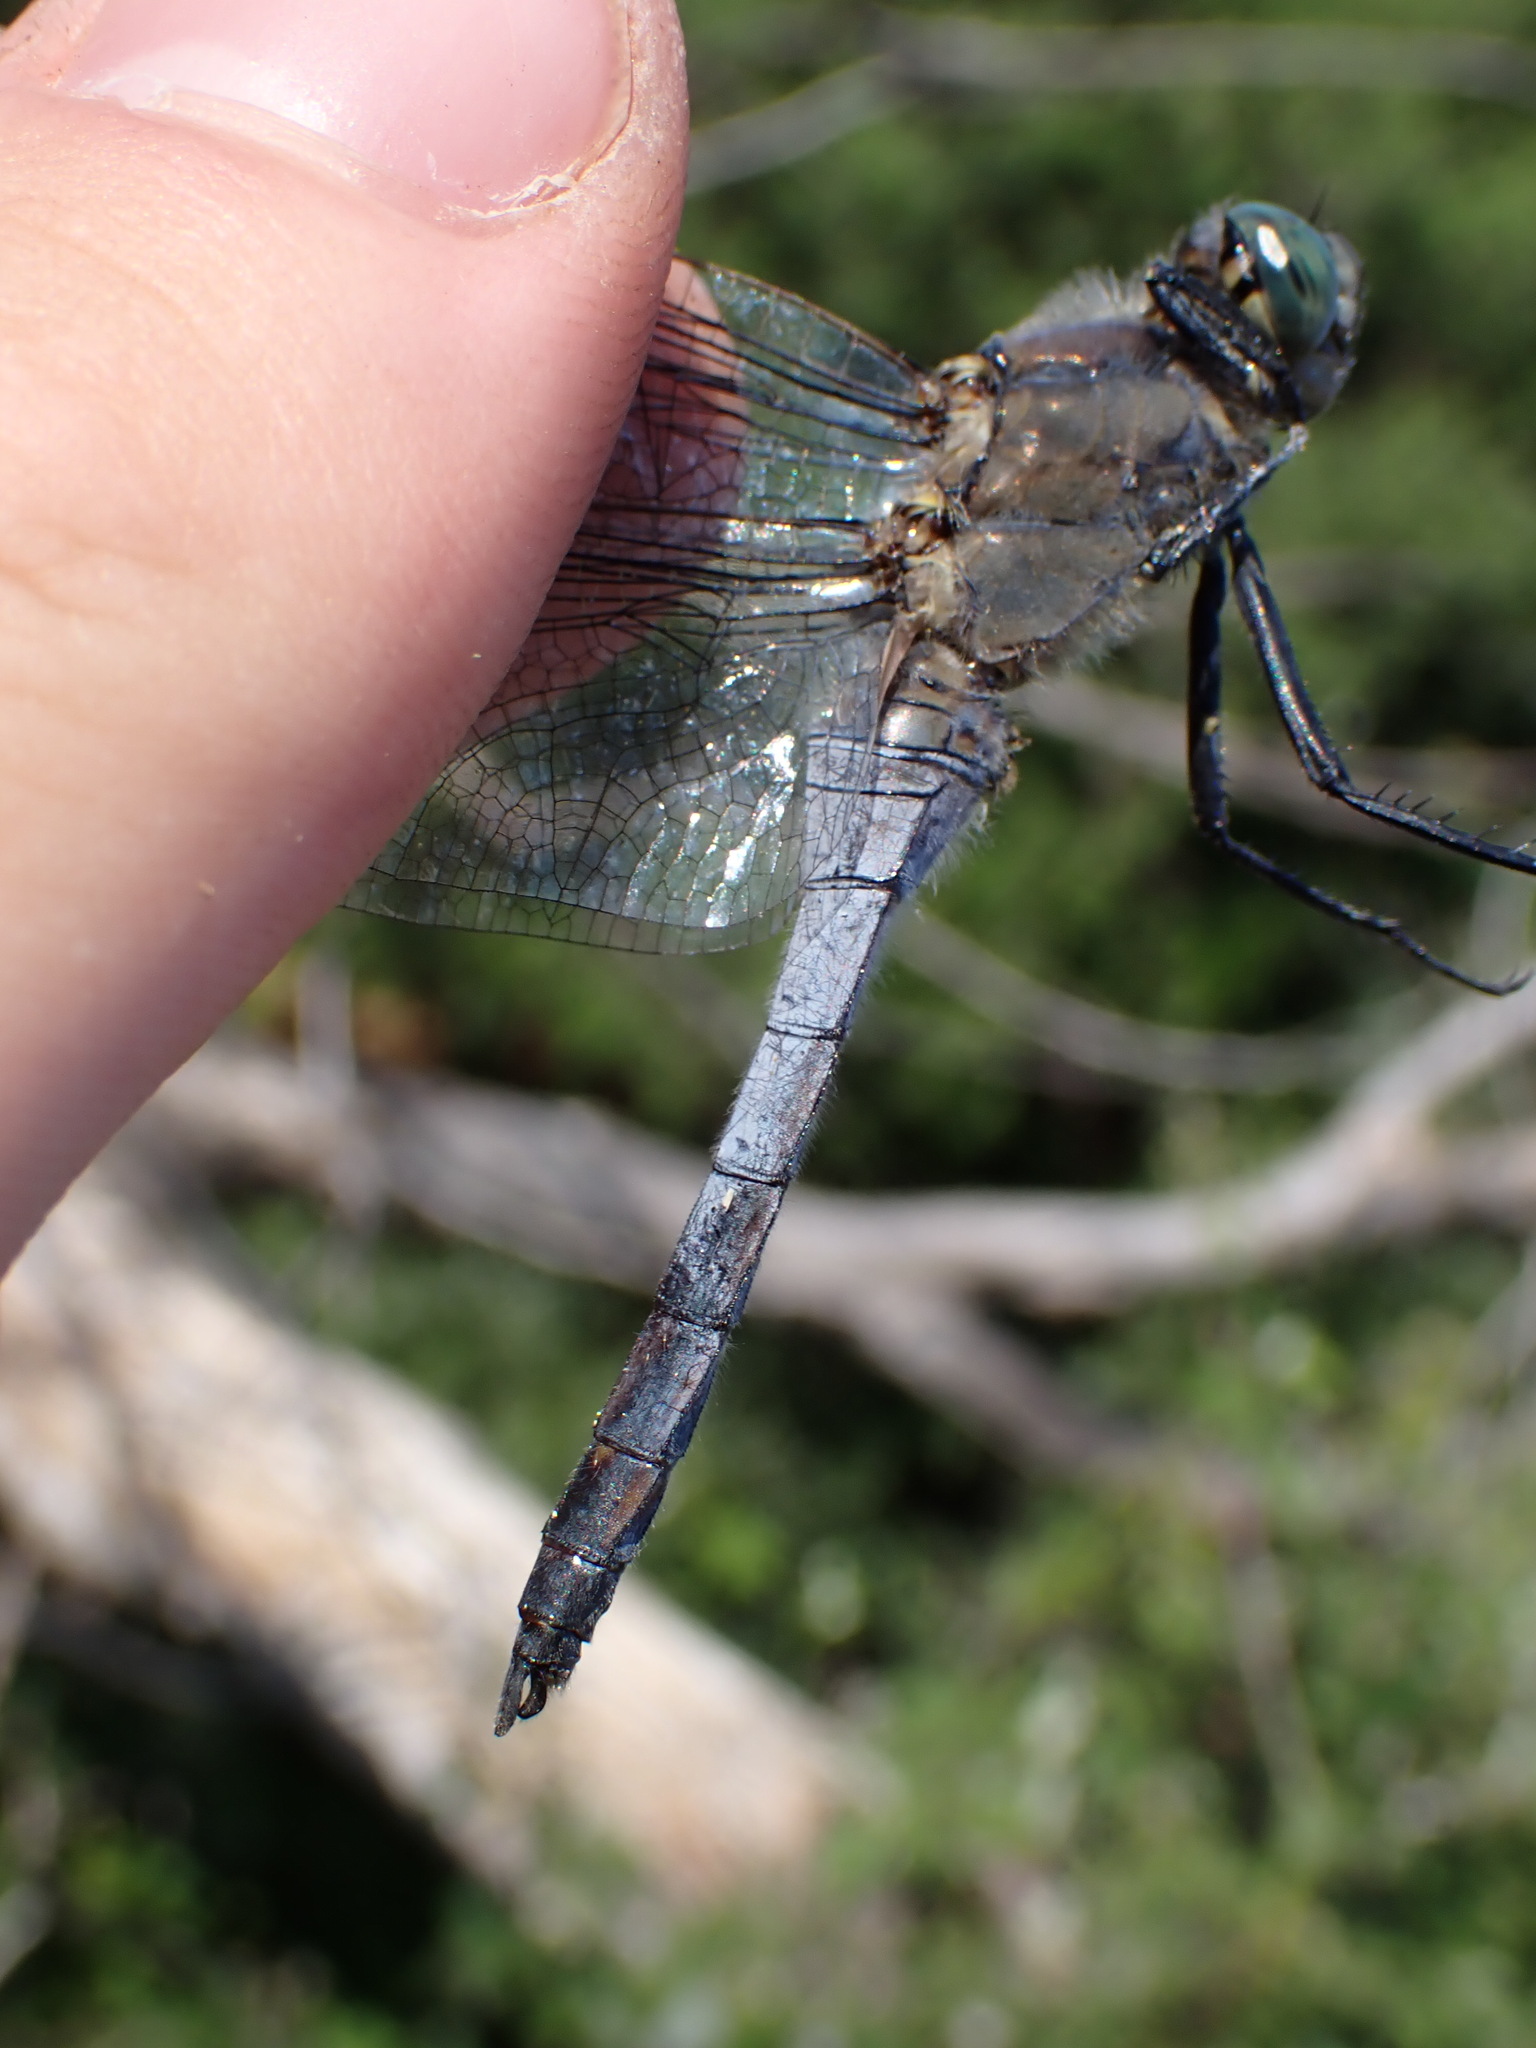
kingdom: Animalia
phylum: Arthropoda
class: Insecta
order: Odonata
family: Libellulidae
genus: Orthetrum
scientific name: Orthetrum cancellatum
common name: Black-tailed skimmer
